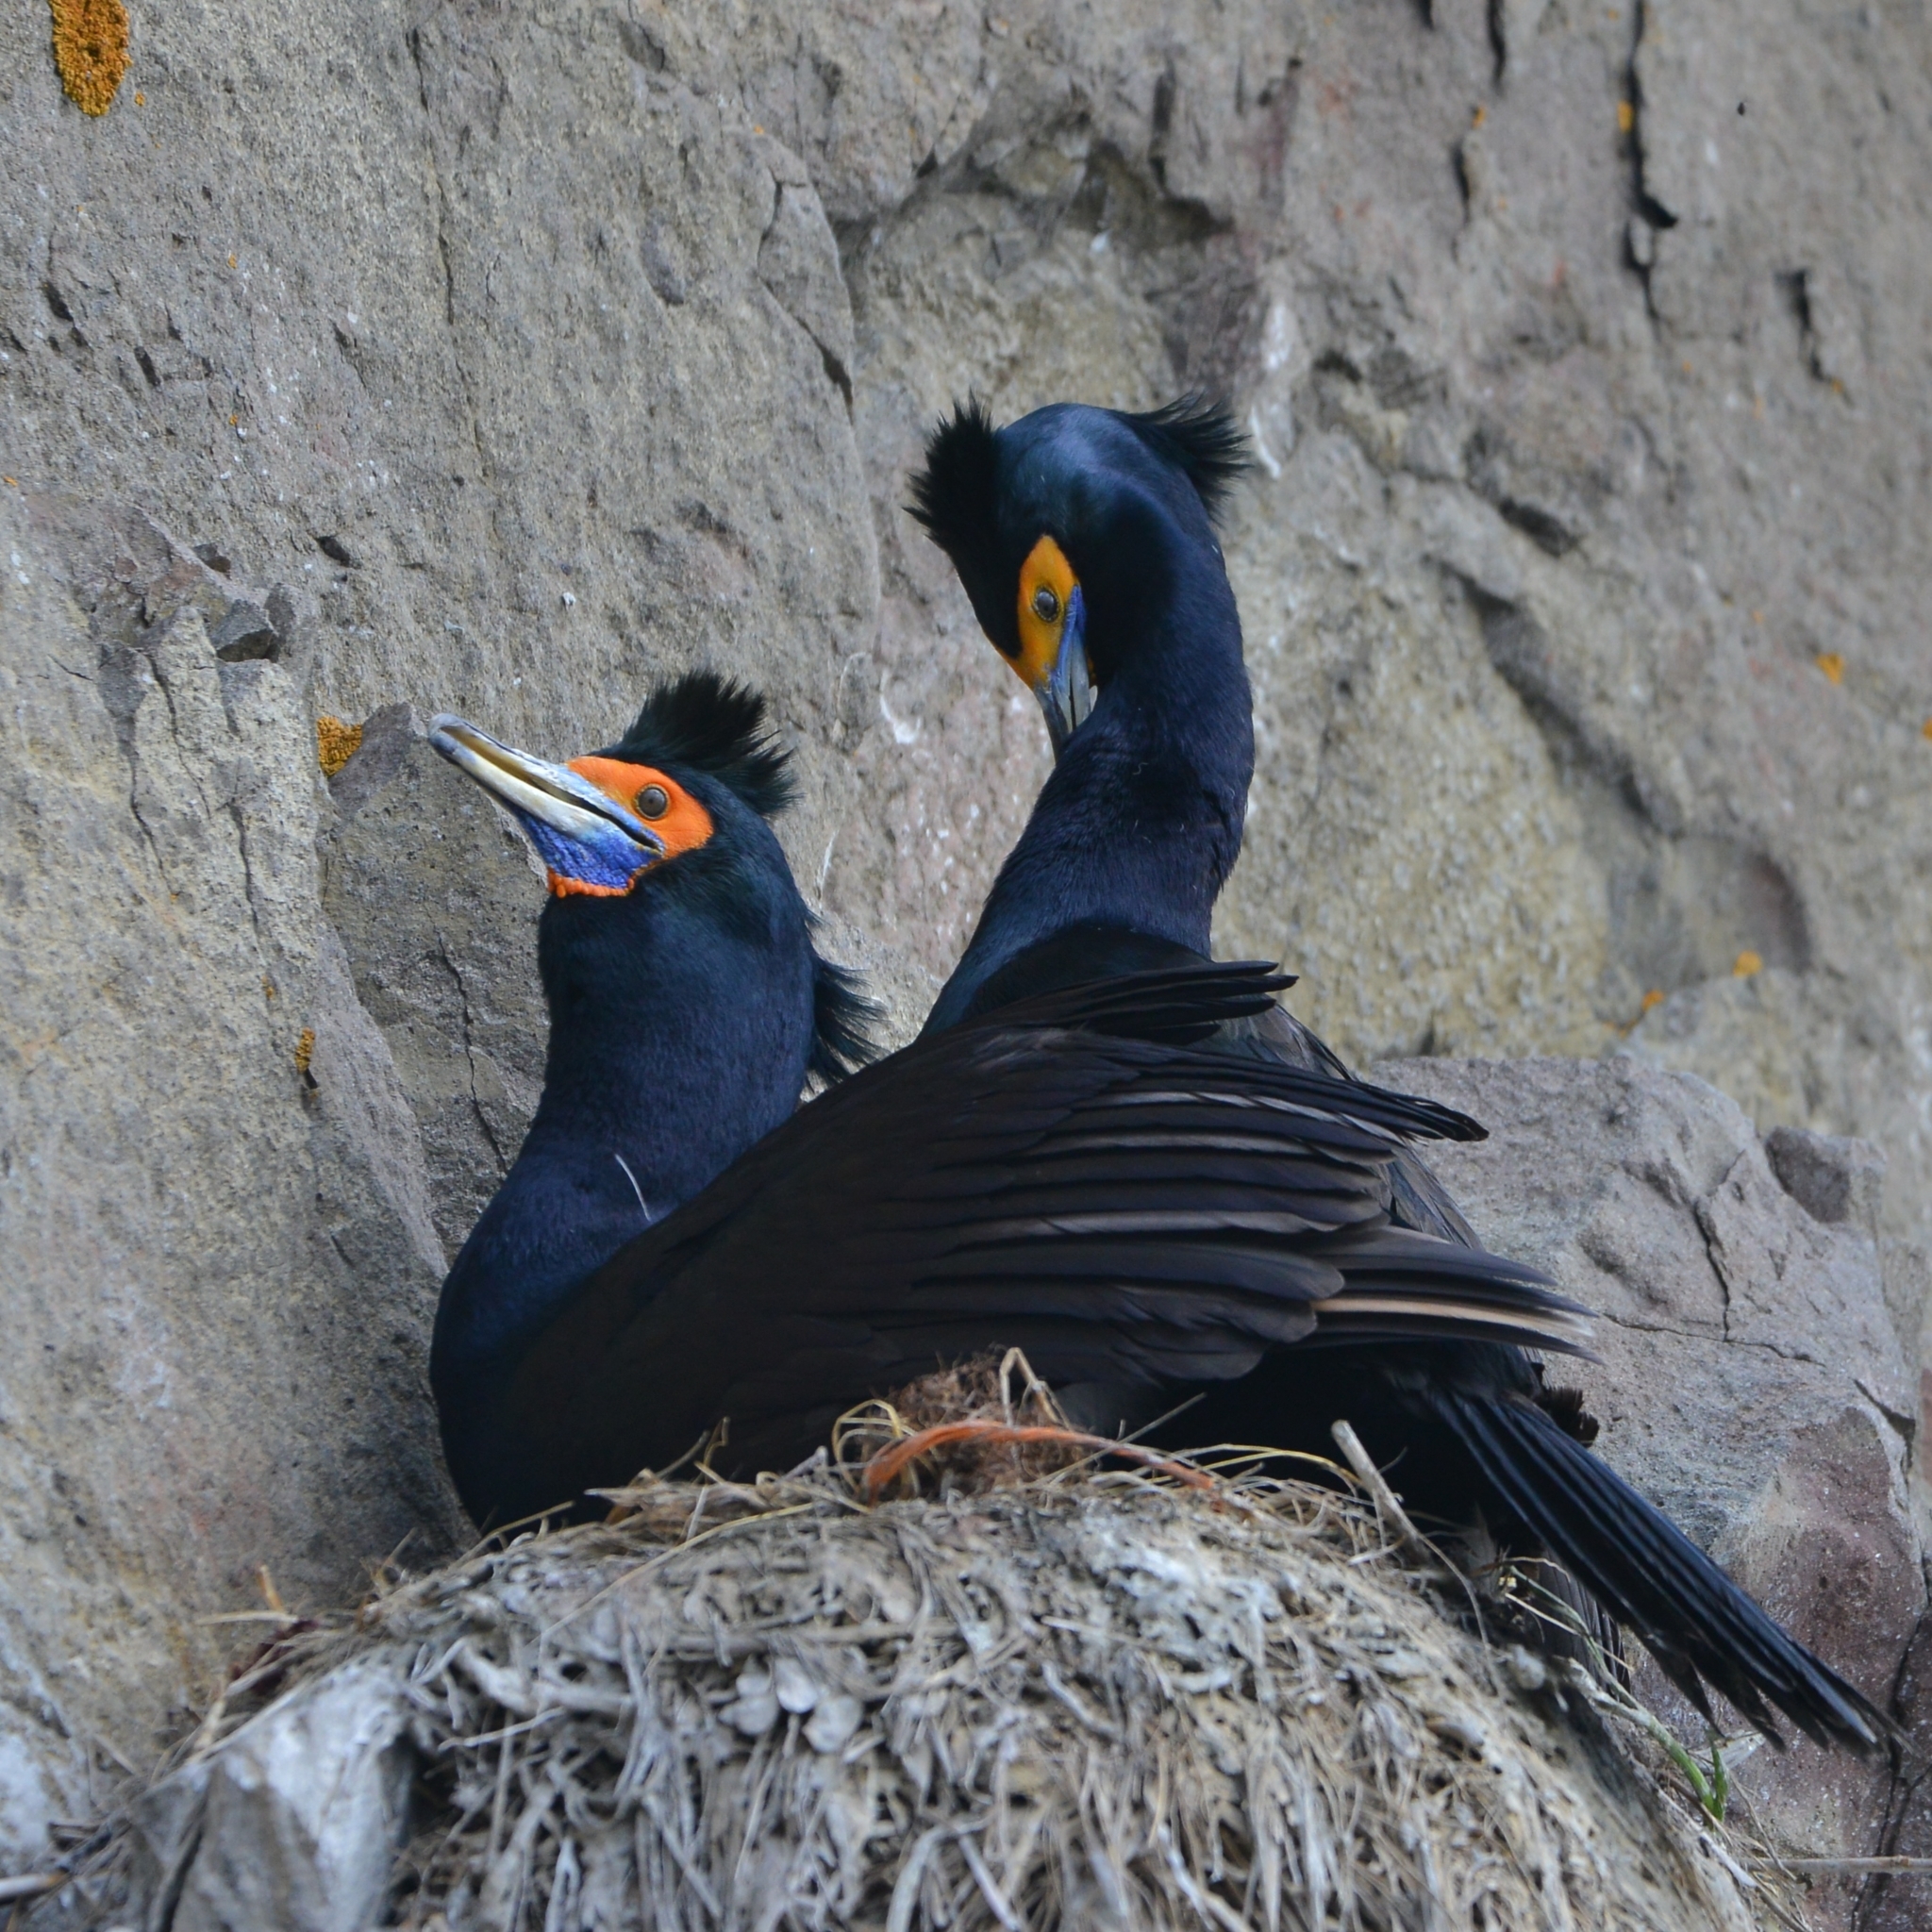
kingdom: Animalia
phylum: Chordata
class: Aves
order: Suliformes
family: Phalacrocoracidae
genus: Phalacrocorax
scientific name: Phalacrocorax urile
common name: Red-faced cormorant
